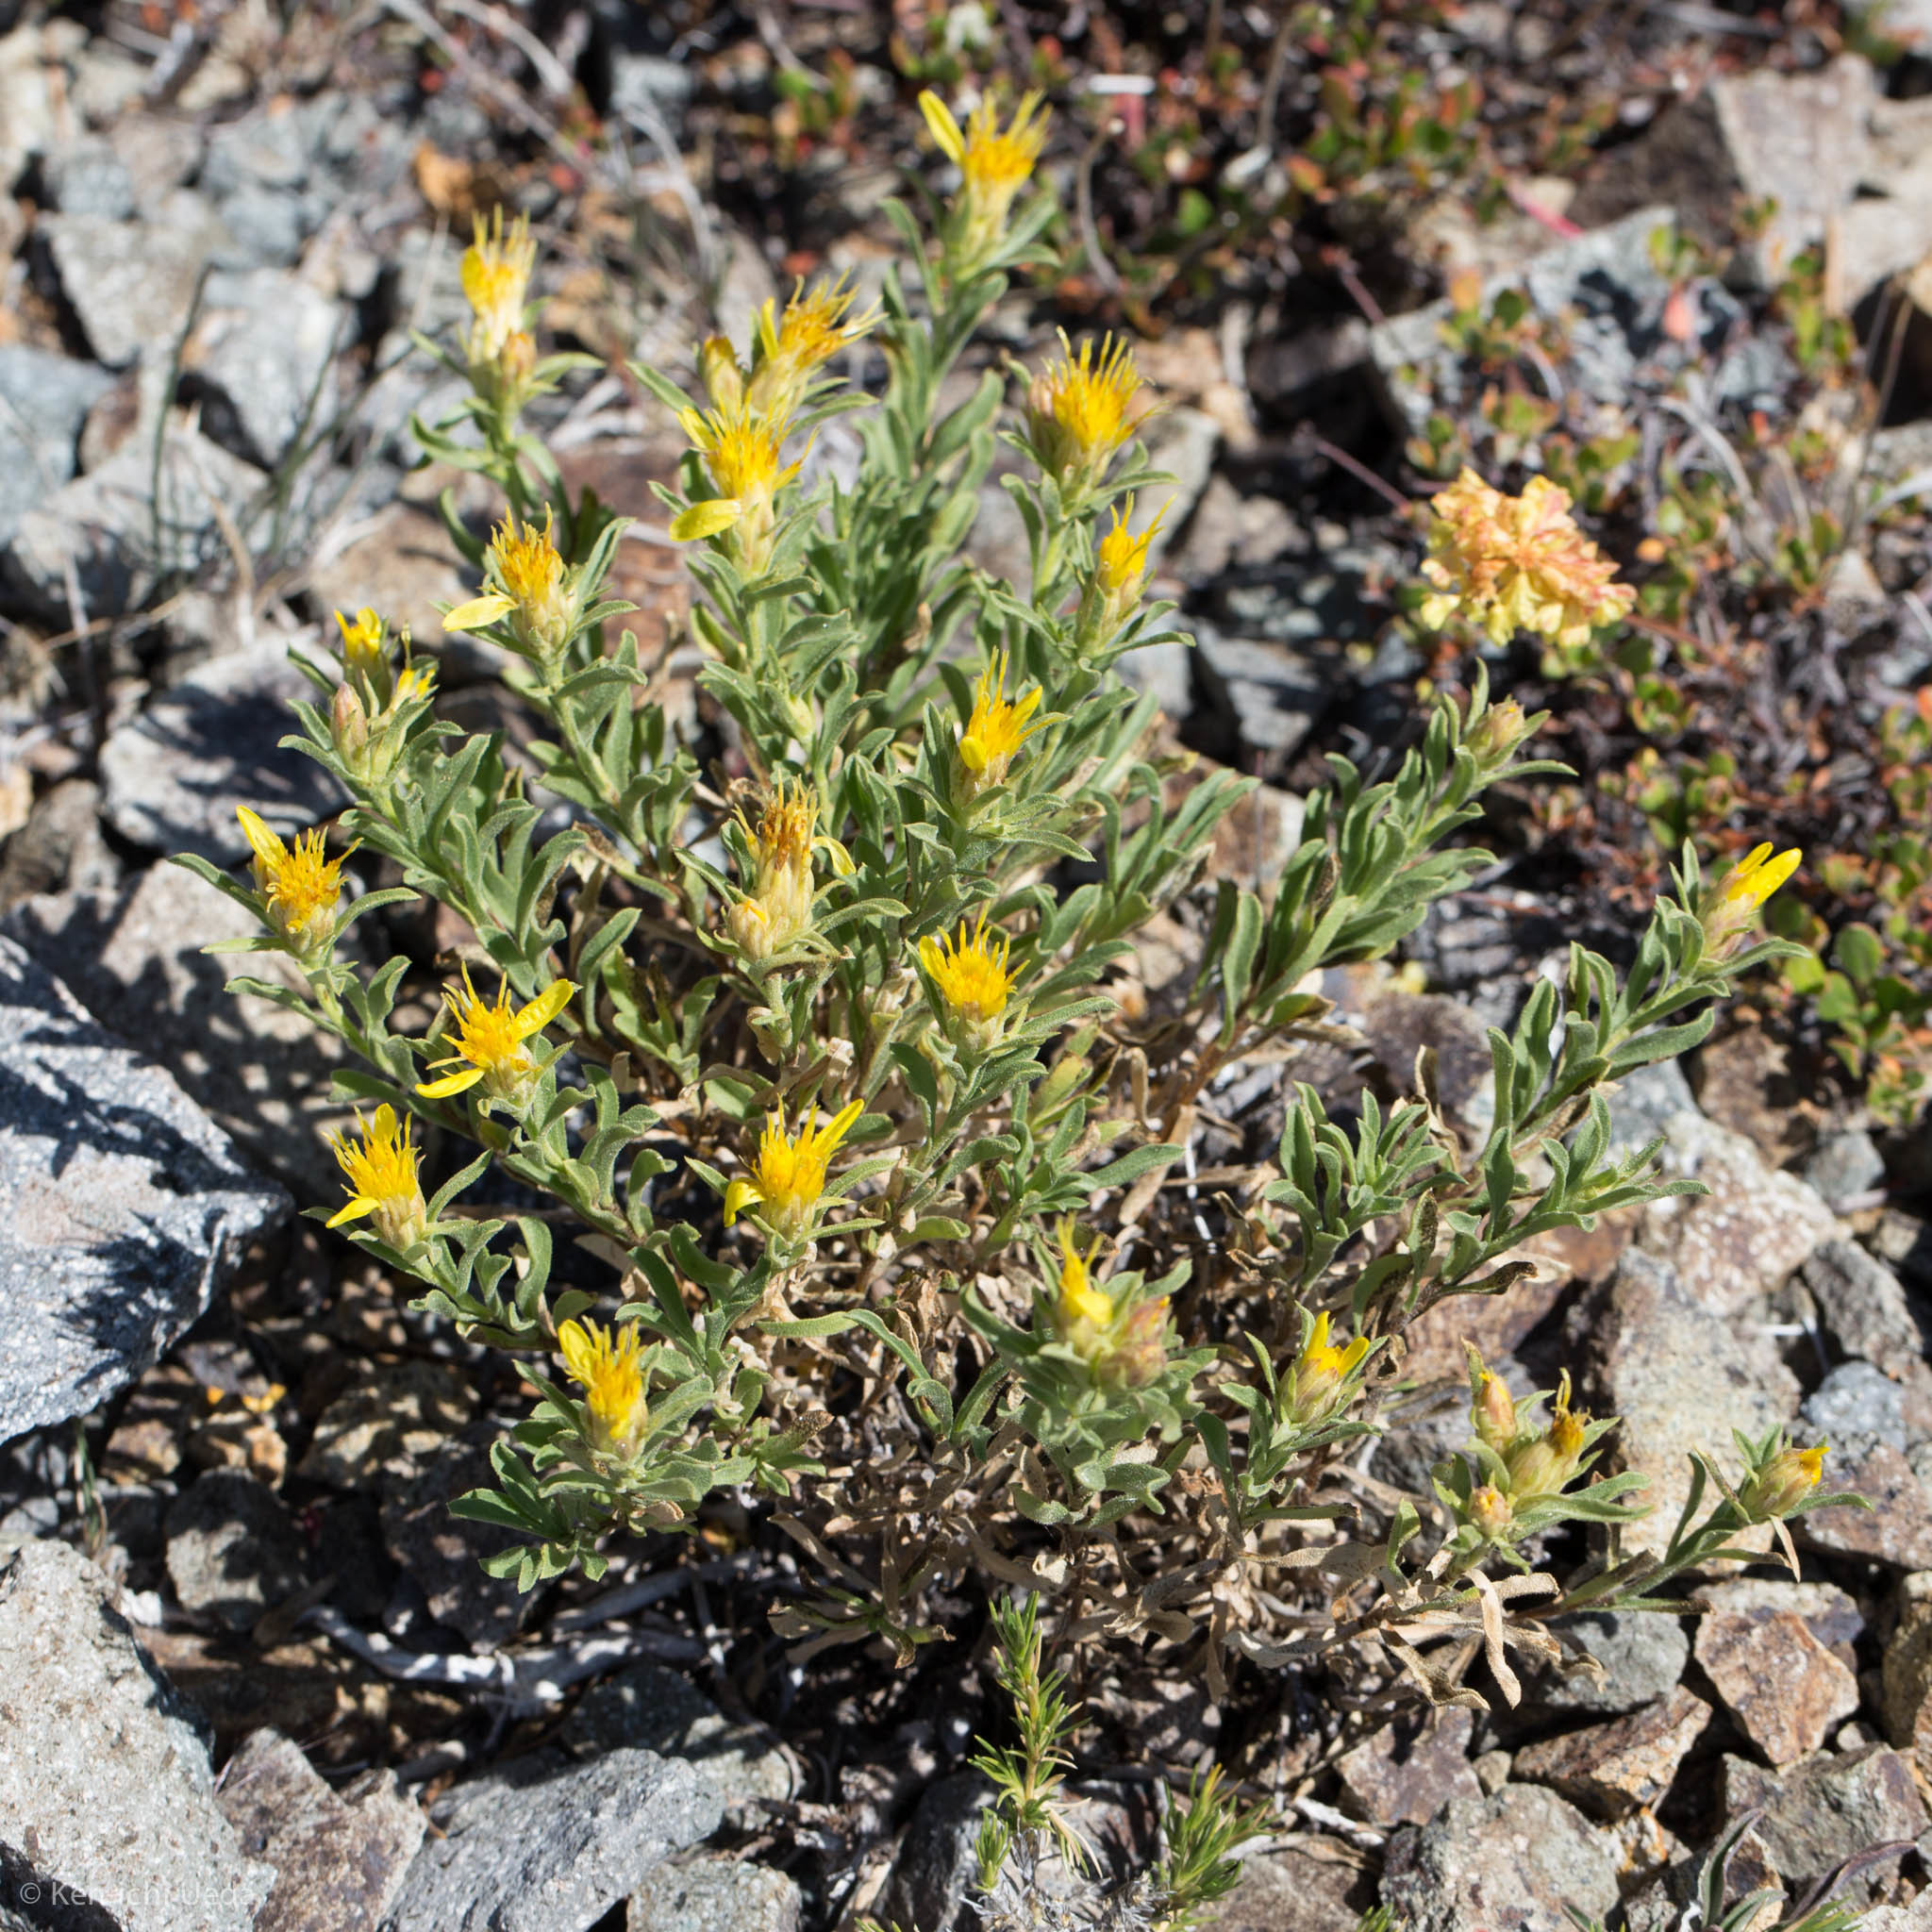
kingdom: Plantae
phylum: Tracheophyta
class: Magnoliopsida
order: Asterales
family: Asteraceae
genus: Ericameria
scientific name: Ericameria suffruticosa
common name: Goldenweed
